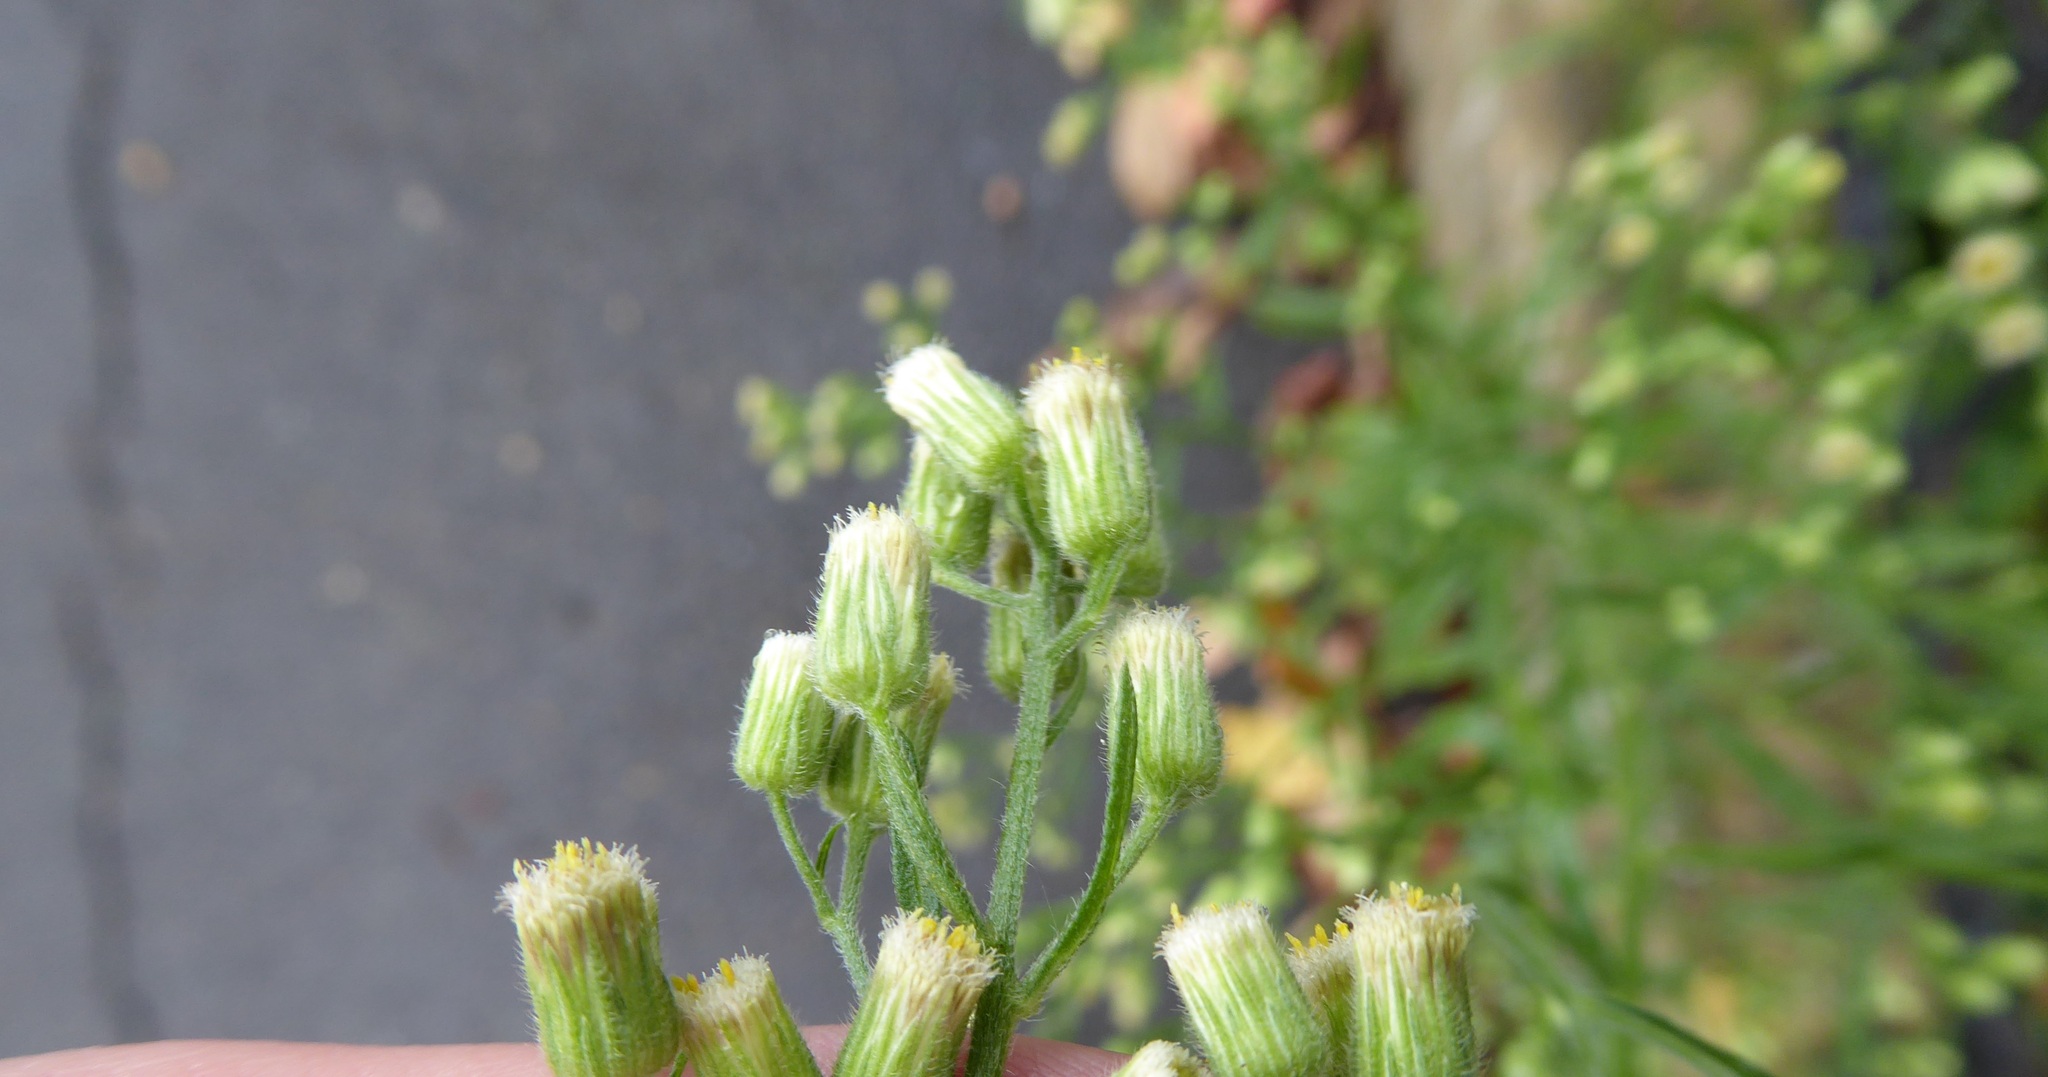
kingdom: Plantae
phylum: Tracheophyta
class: Magnoliopsida
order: Asterales
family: Asteraceae
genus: Erigeron
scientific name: Erigeron sumatrensis
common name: Daisy
